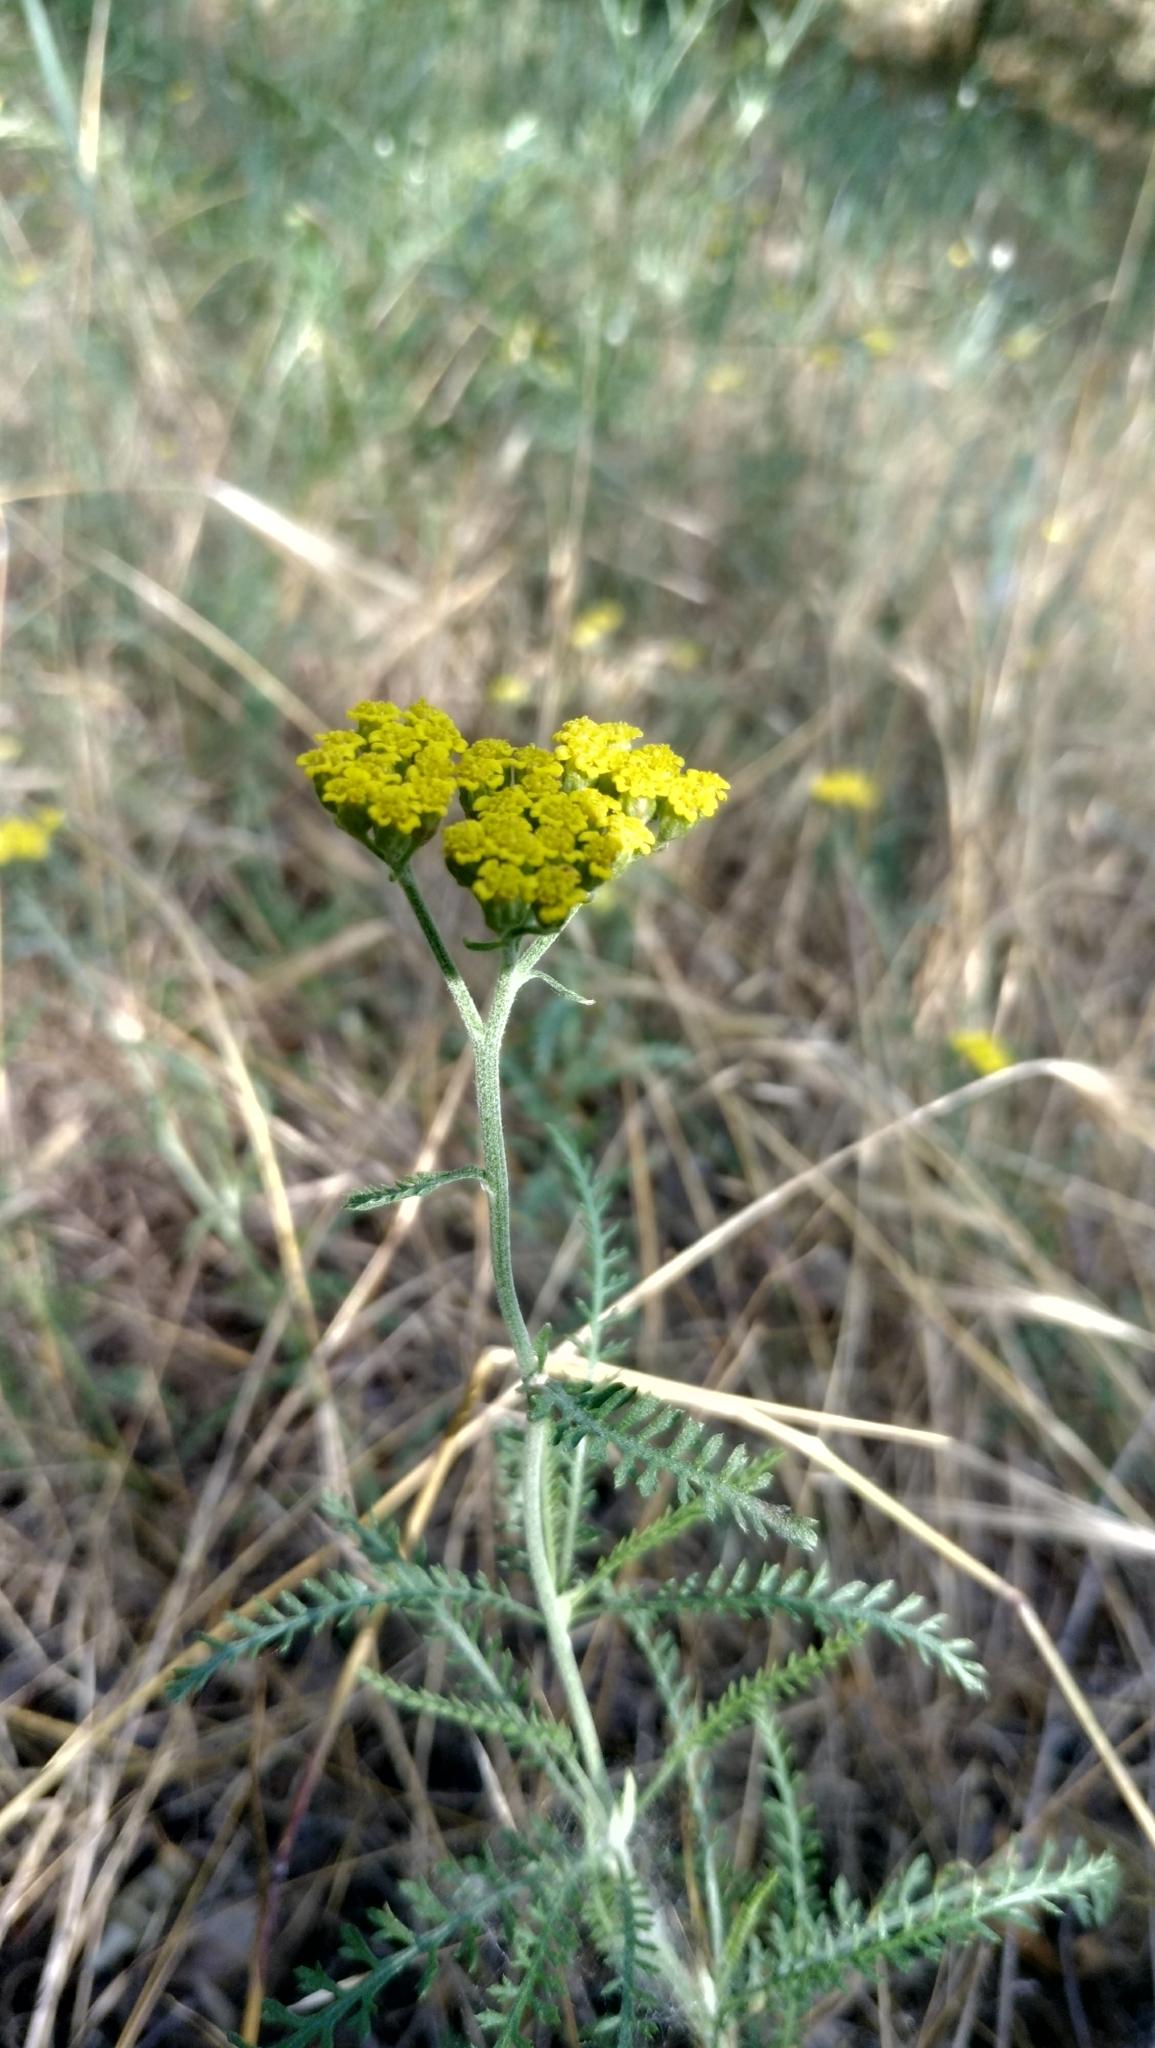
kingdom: Plantae
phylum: Tracheophyta
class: Magnoliopsida
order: Asterales
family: Asteraceae
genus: Achillea
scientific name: Achillea micrantha
